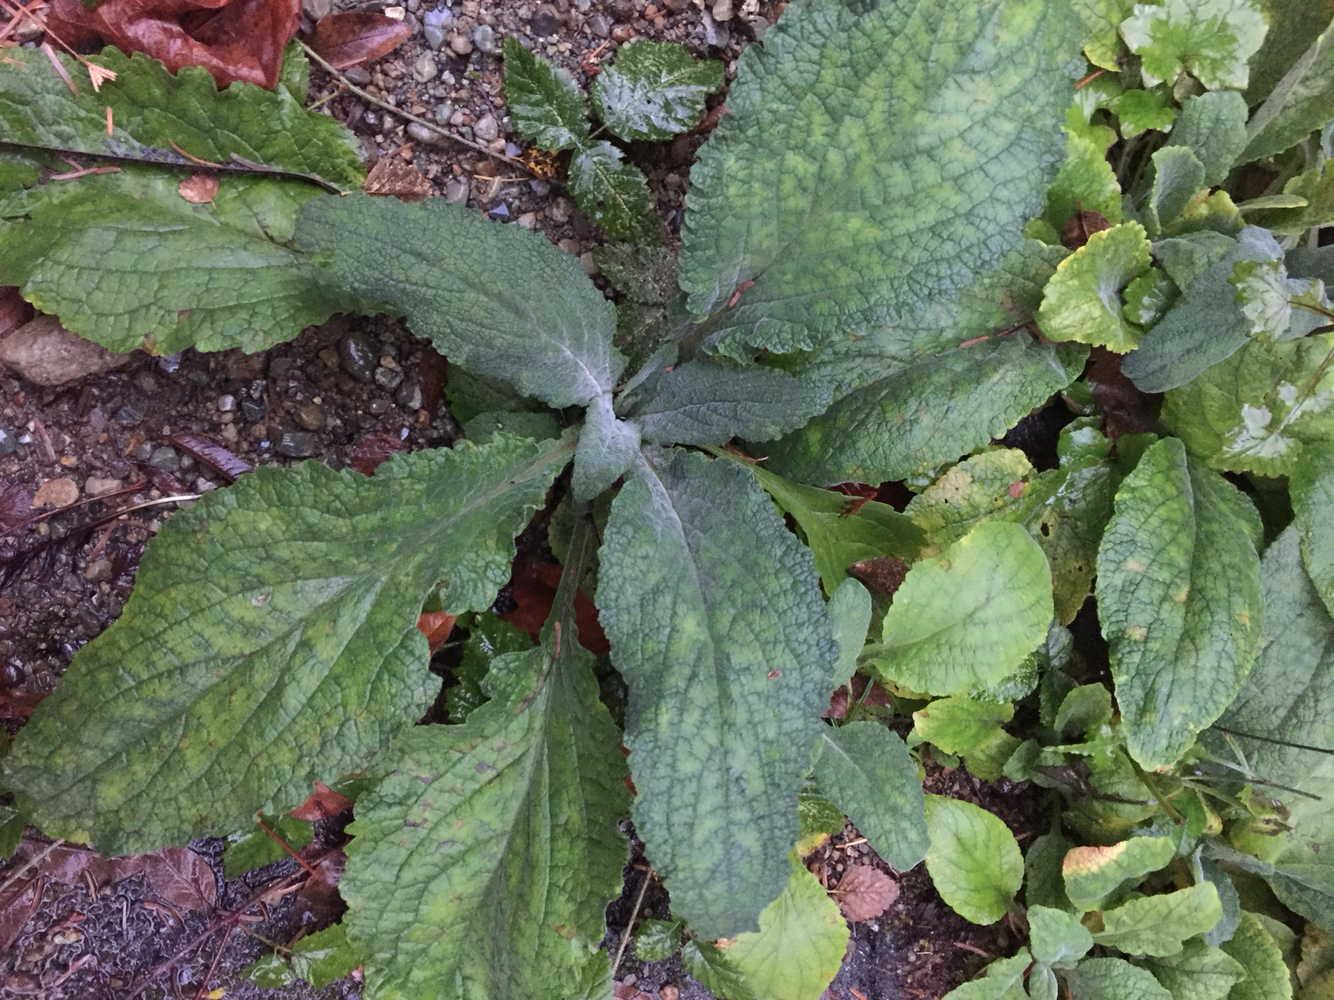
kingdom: Plantae
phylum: Tracheophyta
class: Magnoliopsida
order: Lamiales
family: Plantaginaceae
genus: Digitalis
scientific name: Digitalis purpurea
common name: Foxglove
